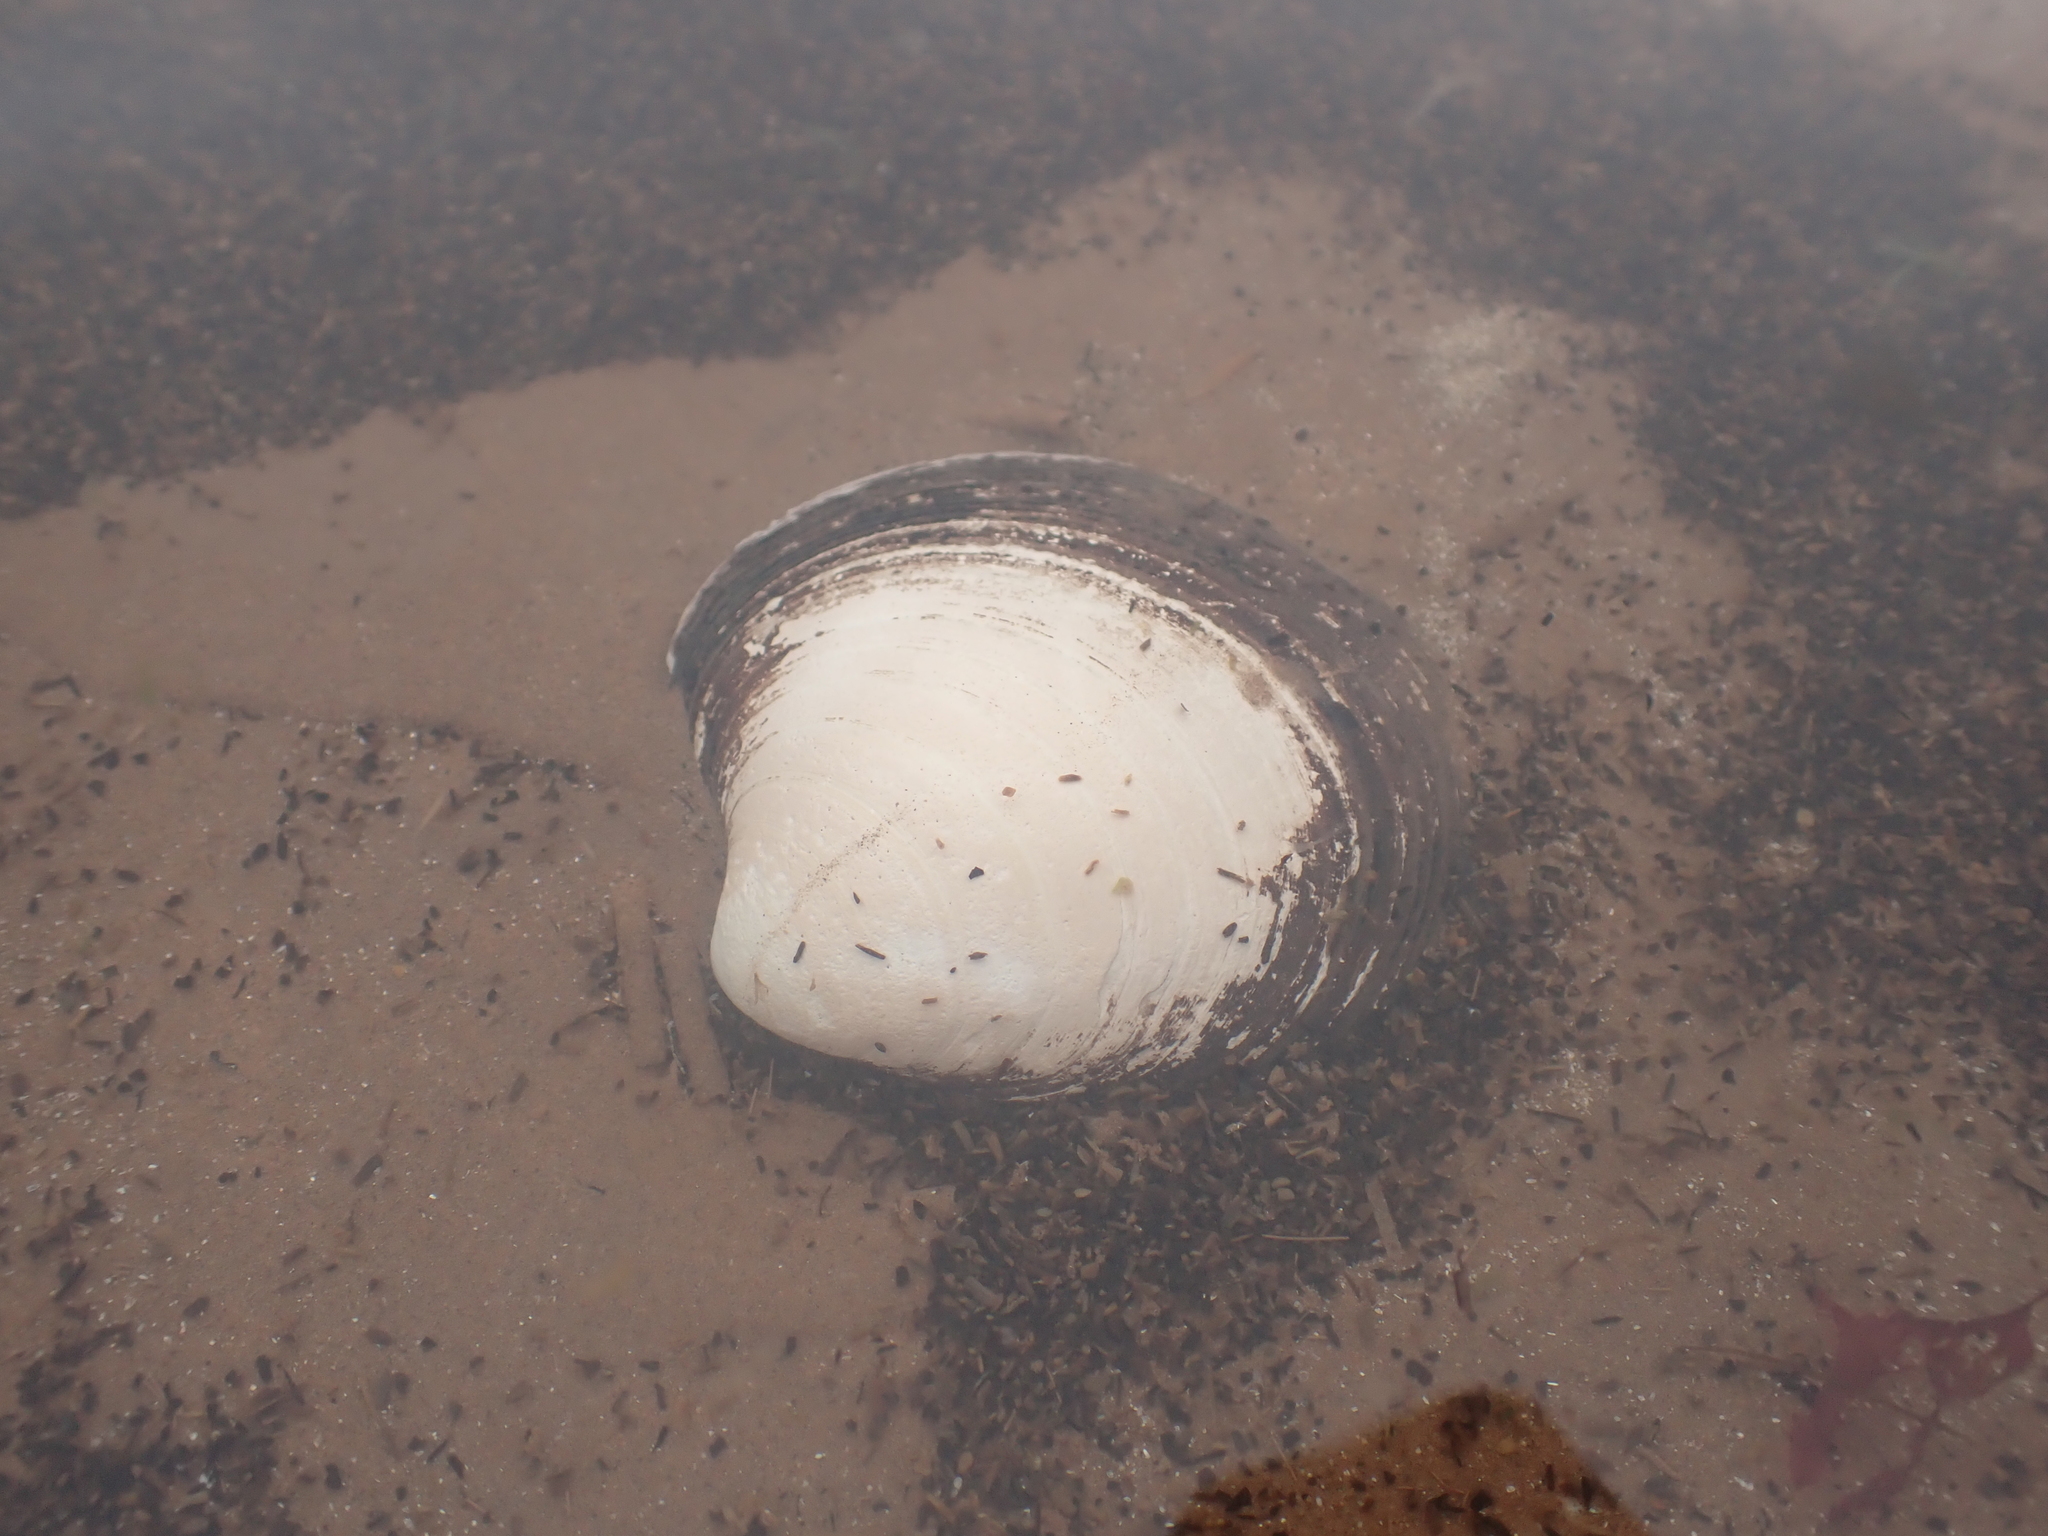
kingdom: Animalia
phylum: Mollusca
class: Bivalvia
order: Venerida
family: Arcticidae
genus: Arctica
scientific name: Arctica islandica
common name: Icelandic cyprine
